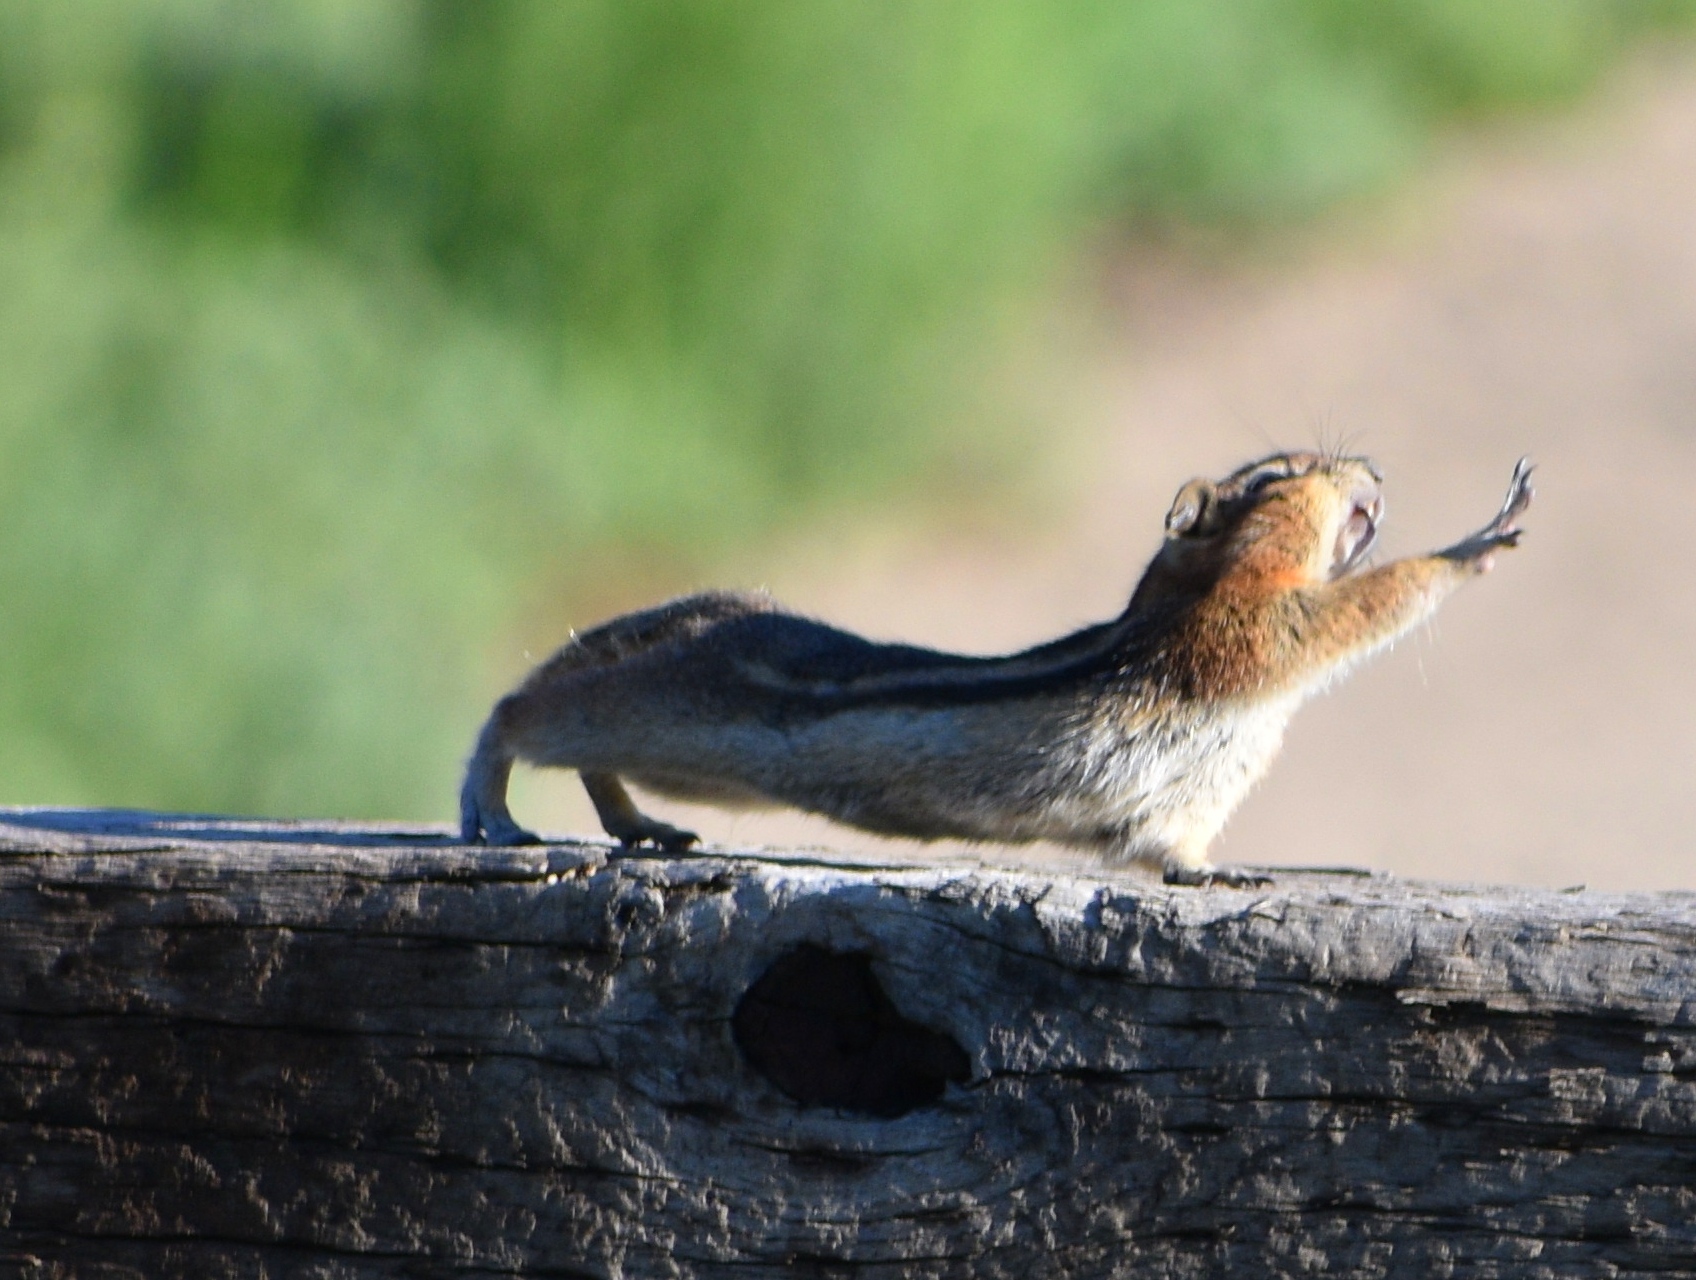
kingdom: Animalia
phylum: Chordata
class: Mammalia
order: Rodentia
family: Sciuridae
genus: Callospermophilus
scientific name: Callospermophilus lateralis
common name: Golden-mantled ground squirrel
